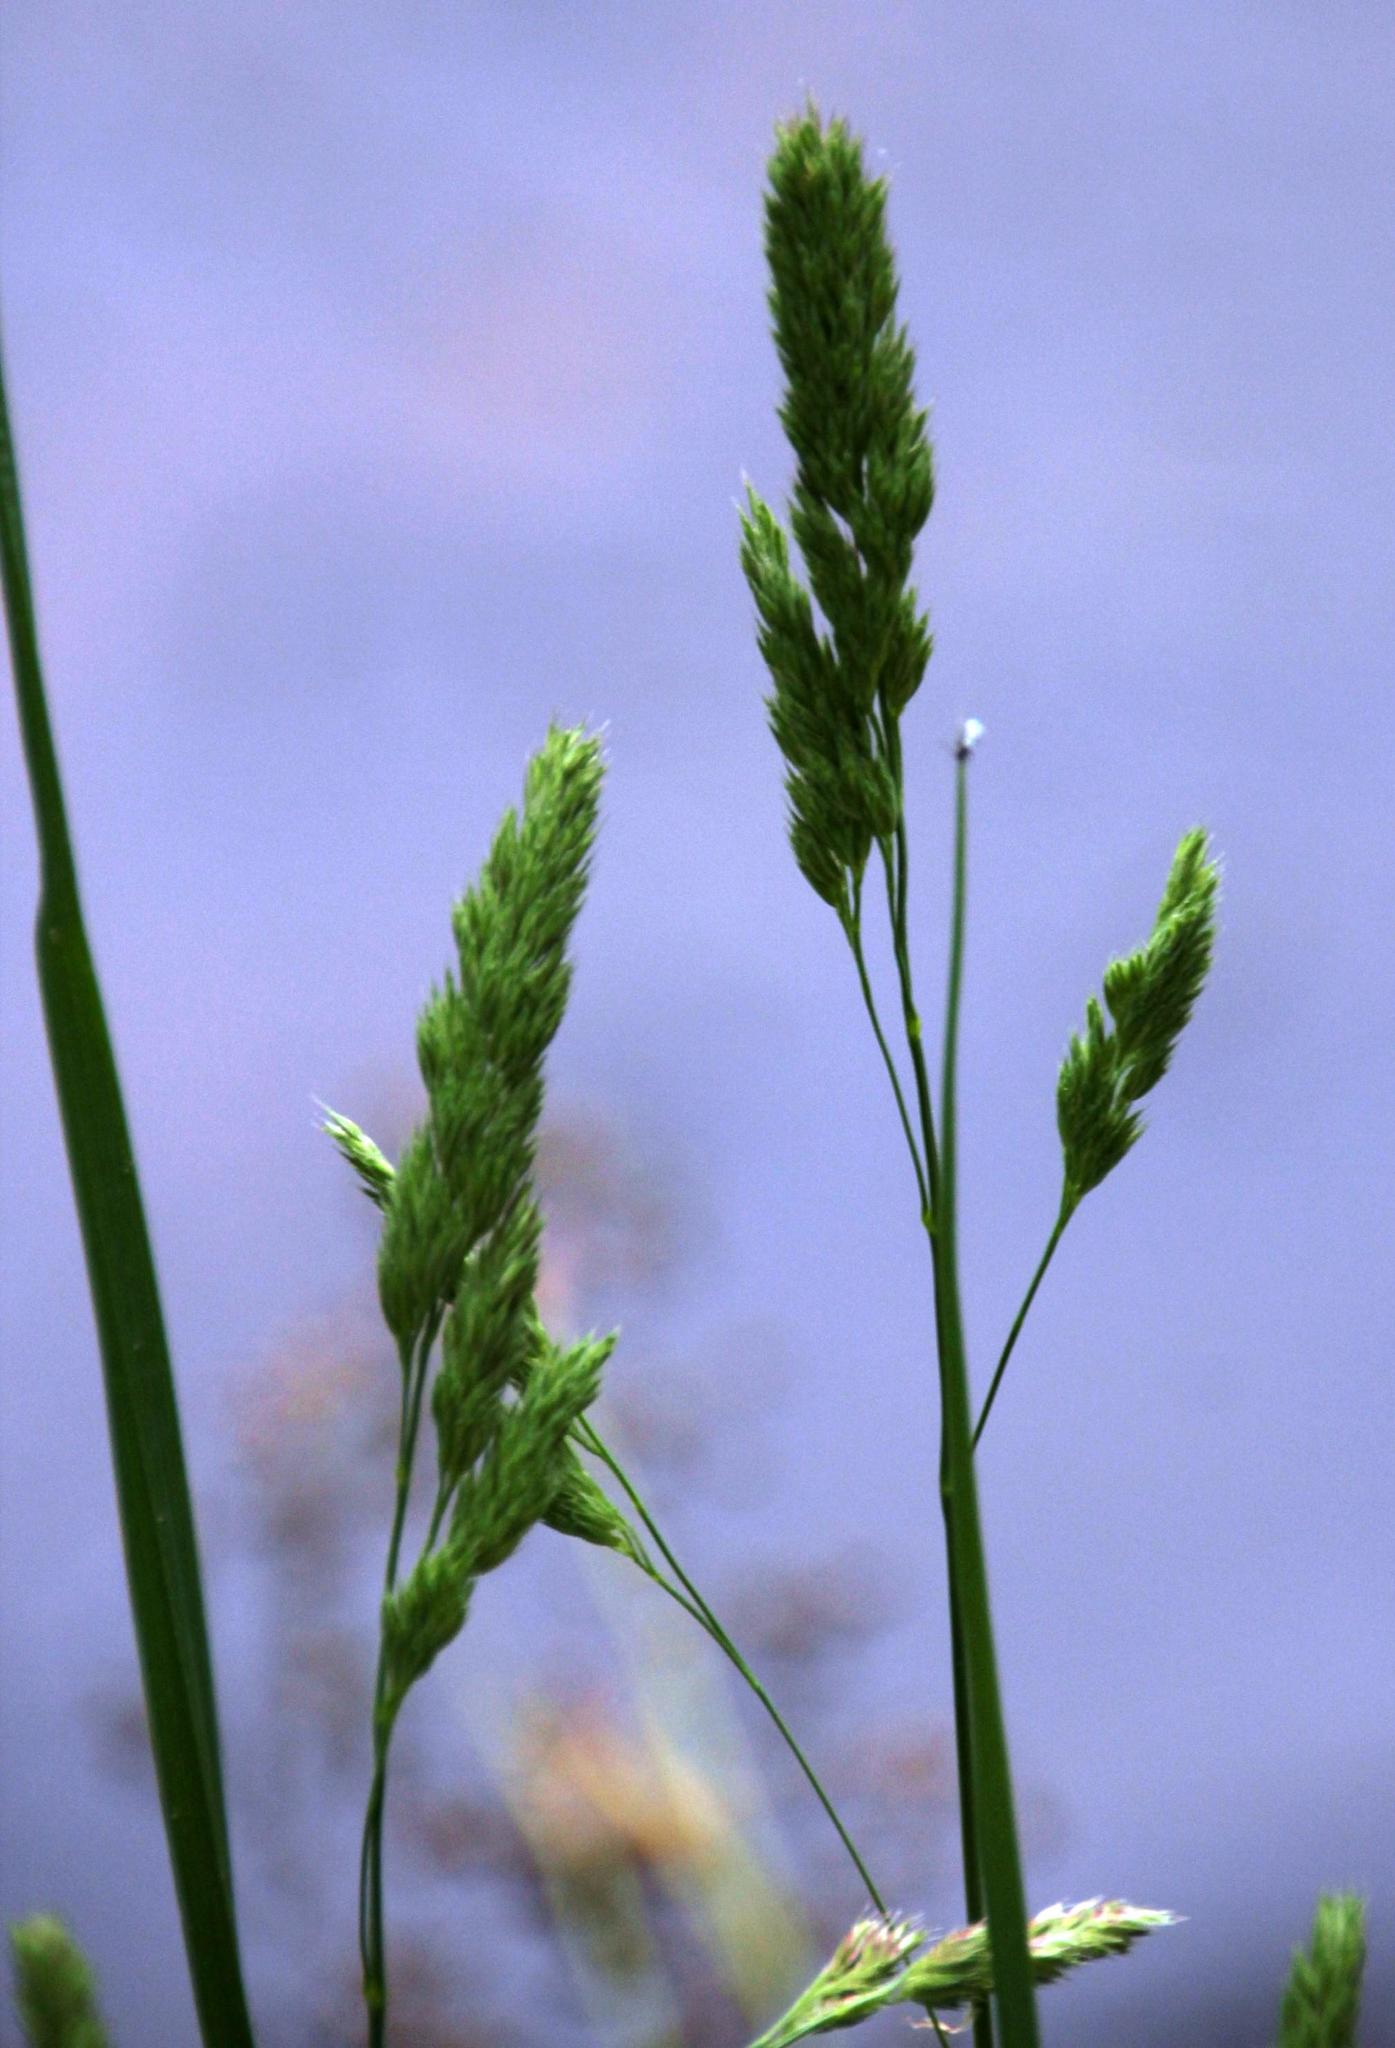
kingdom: Plantae
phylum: Tracheophyta
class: Liliopsida
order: Poales
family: Poaceae
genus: Dactylis
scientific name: Dactylis glomerata
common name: Orchardgrass
